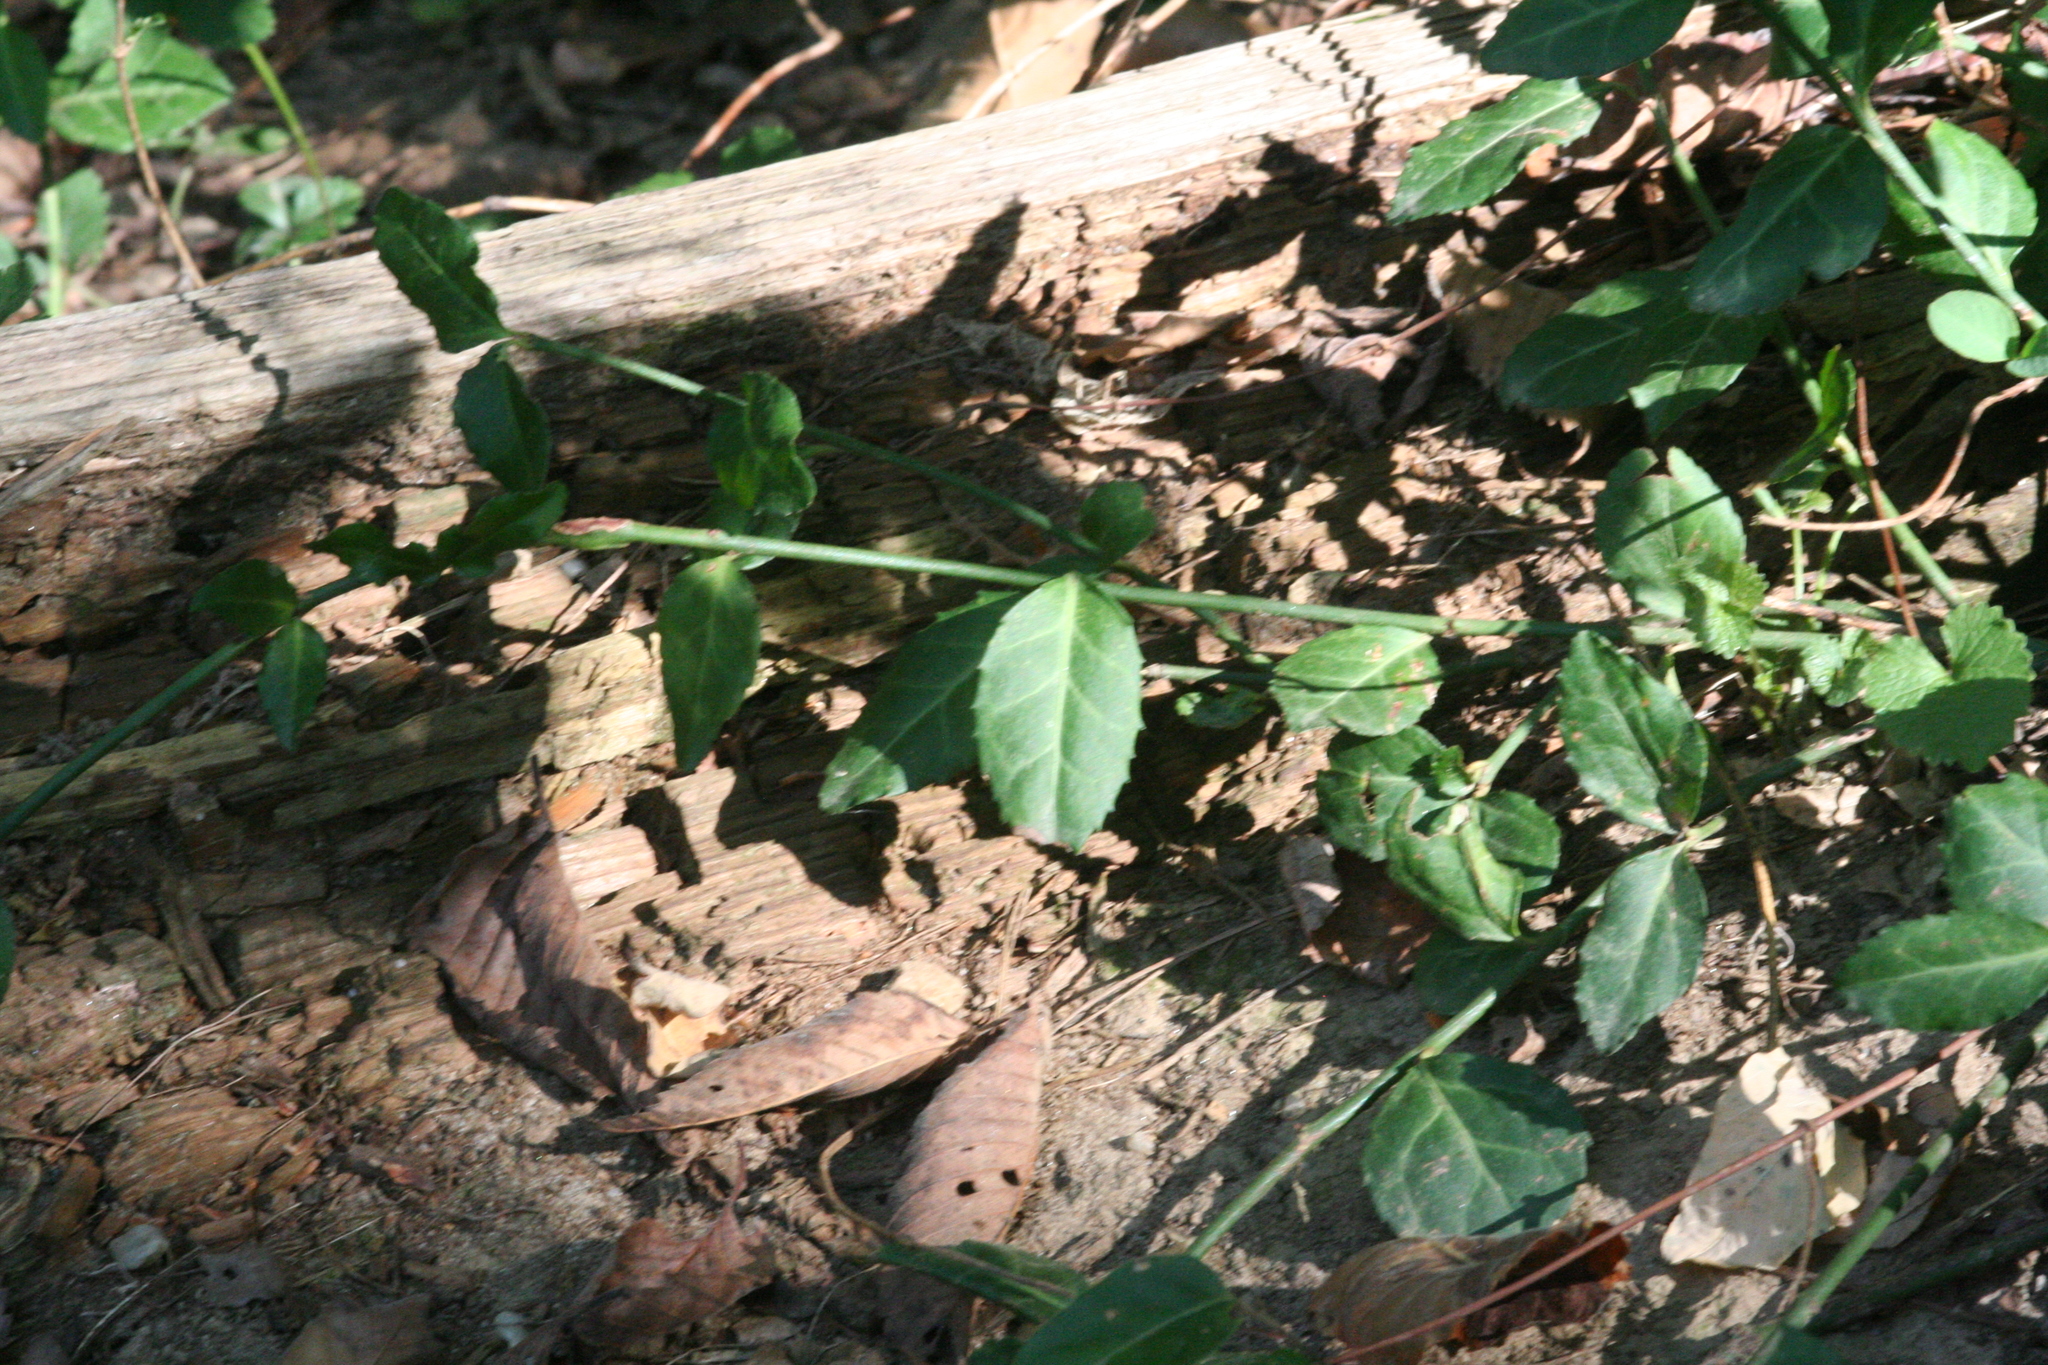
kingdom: Plantae
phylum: Tracheophyta
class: Magnoliopsida
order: Celastrales
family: Celastraceae
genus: Euonymus
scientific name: Euonymus fortunei
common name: Climbing euonymus
